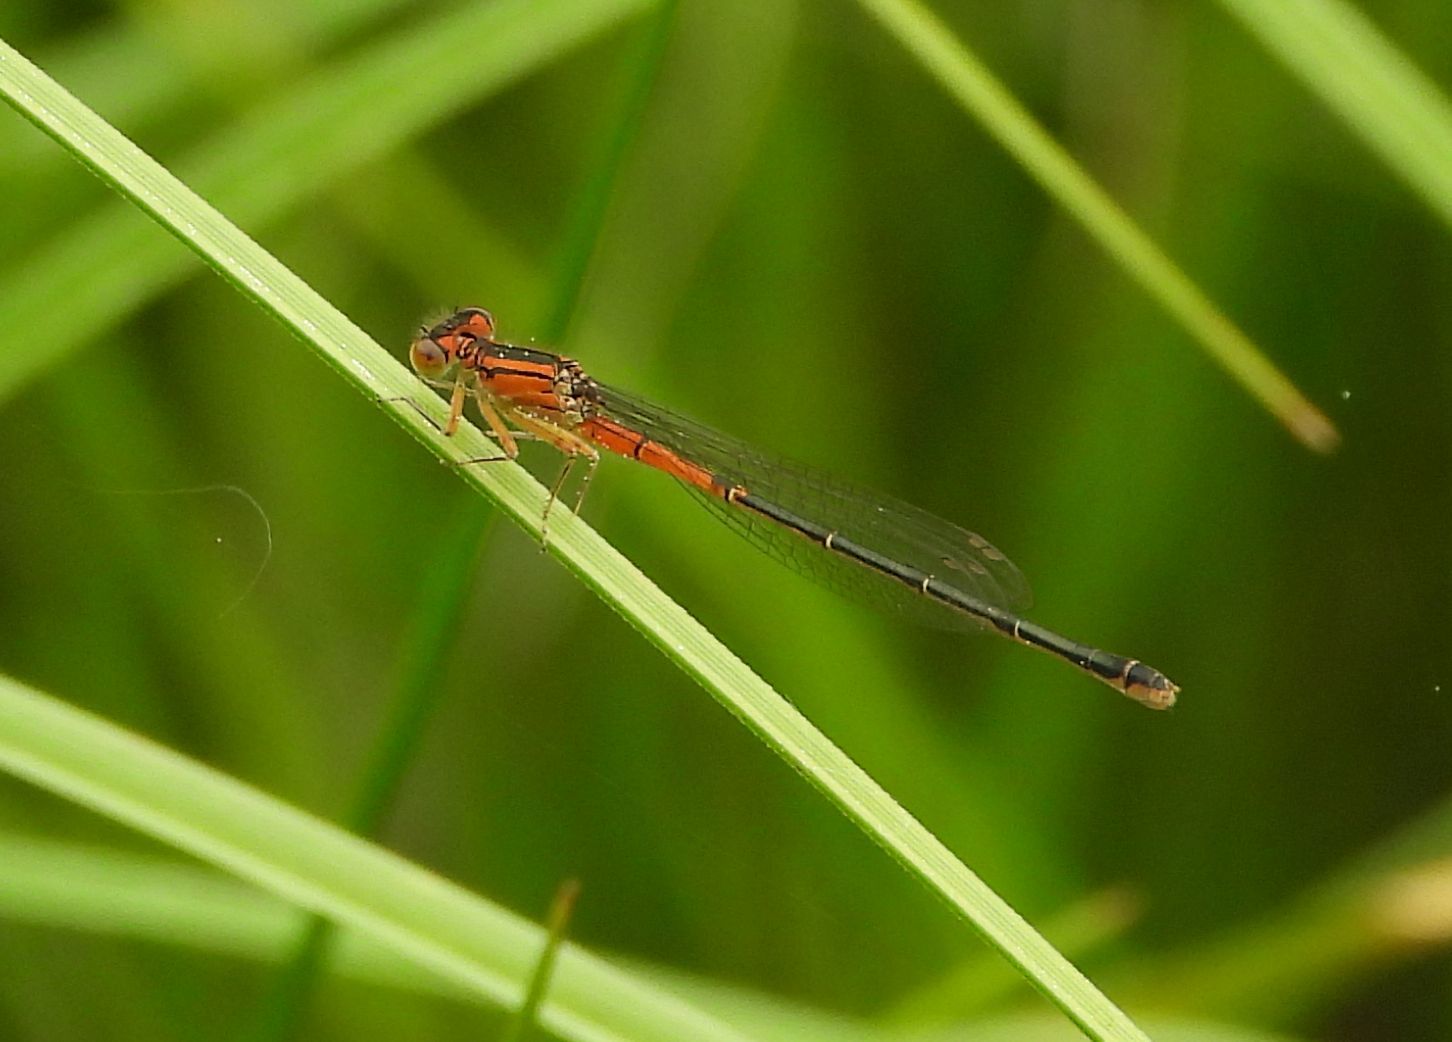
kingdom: Animalia
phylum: Arthropoda
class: Insecta
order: Odonata
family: Coenagrionidae
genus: Ischnura
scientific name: Ischnura verticalis
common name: Eastern forktail
